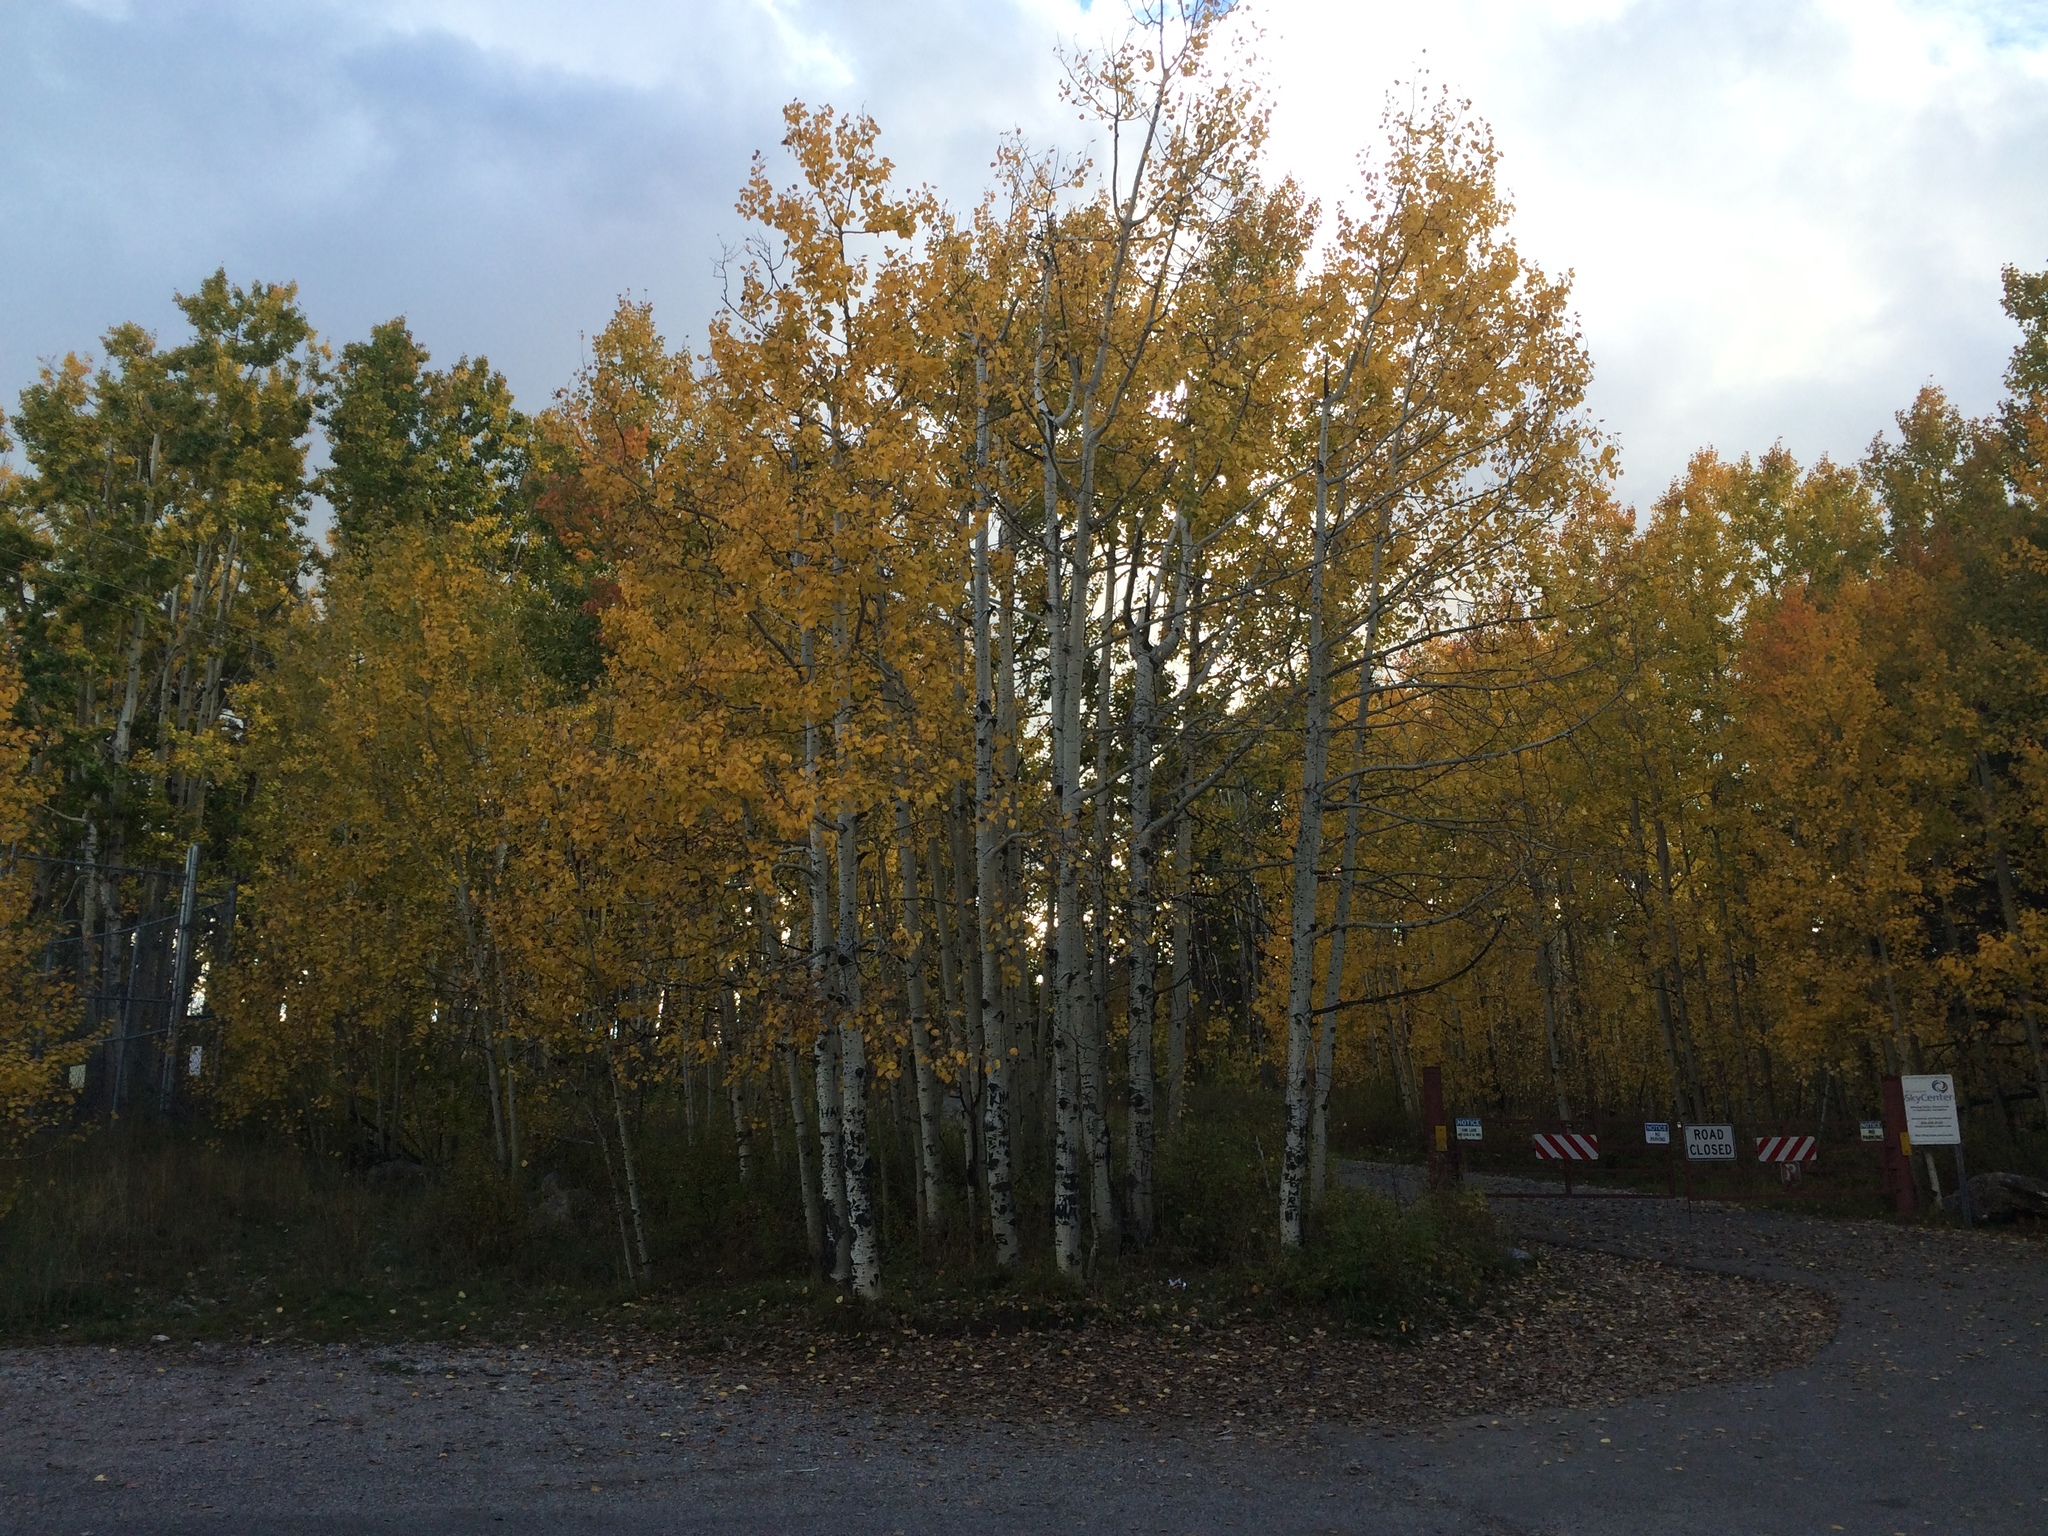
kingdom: Plantae
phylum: Tracheophyta
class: Magnoliopsida
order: Malpighiales
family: Salicaceae
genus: Populus
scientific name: Populus tremuloides
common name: Quaking aspen
